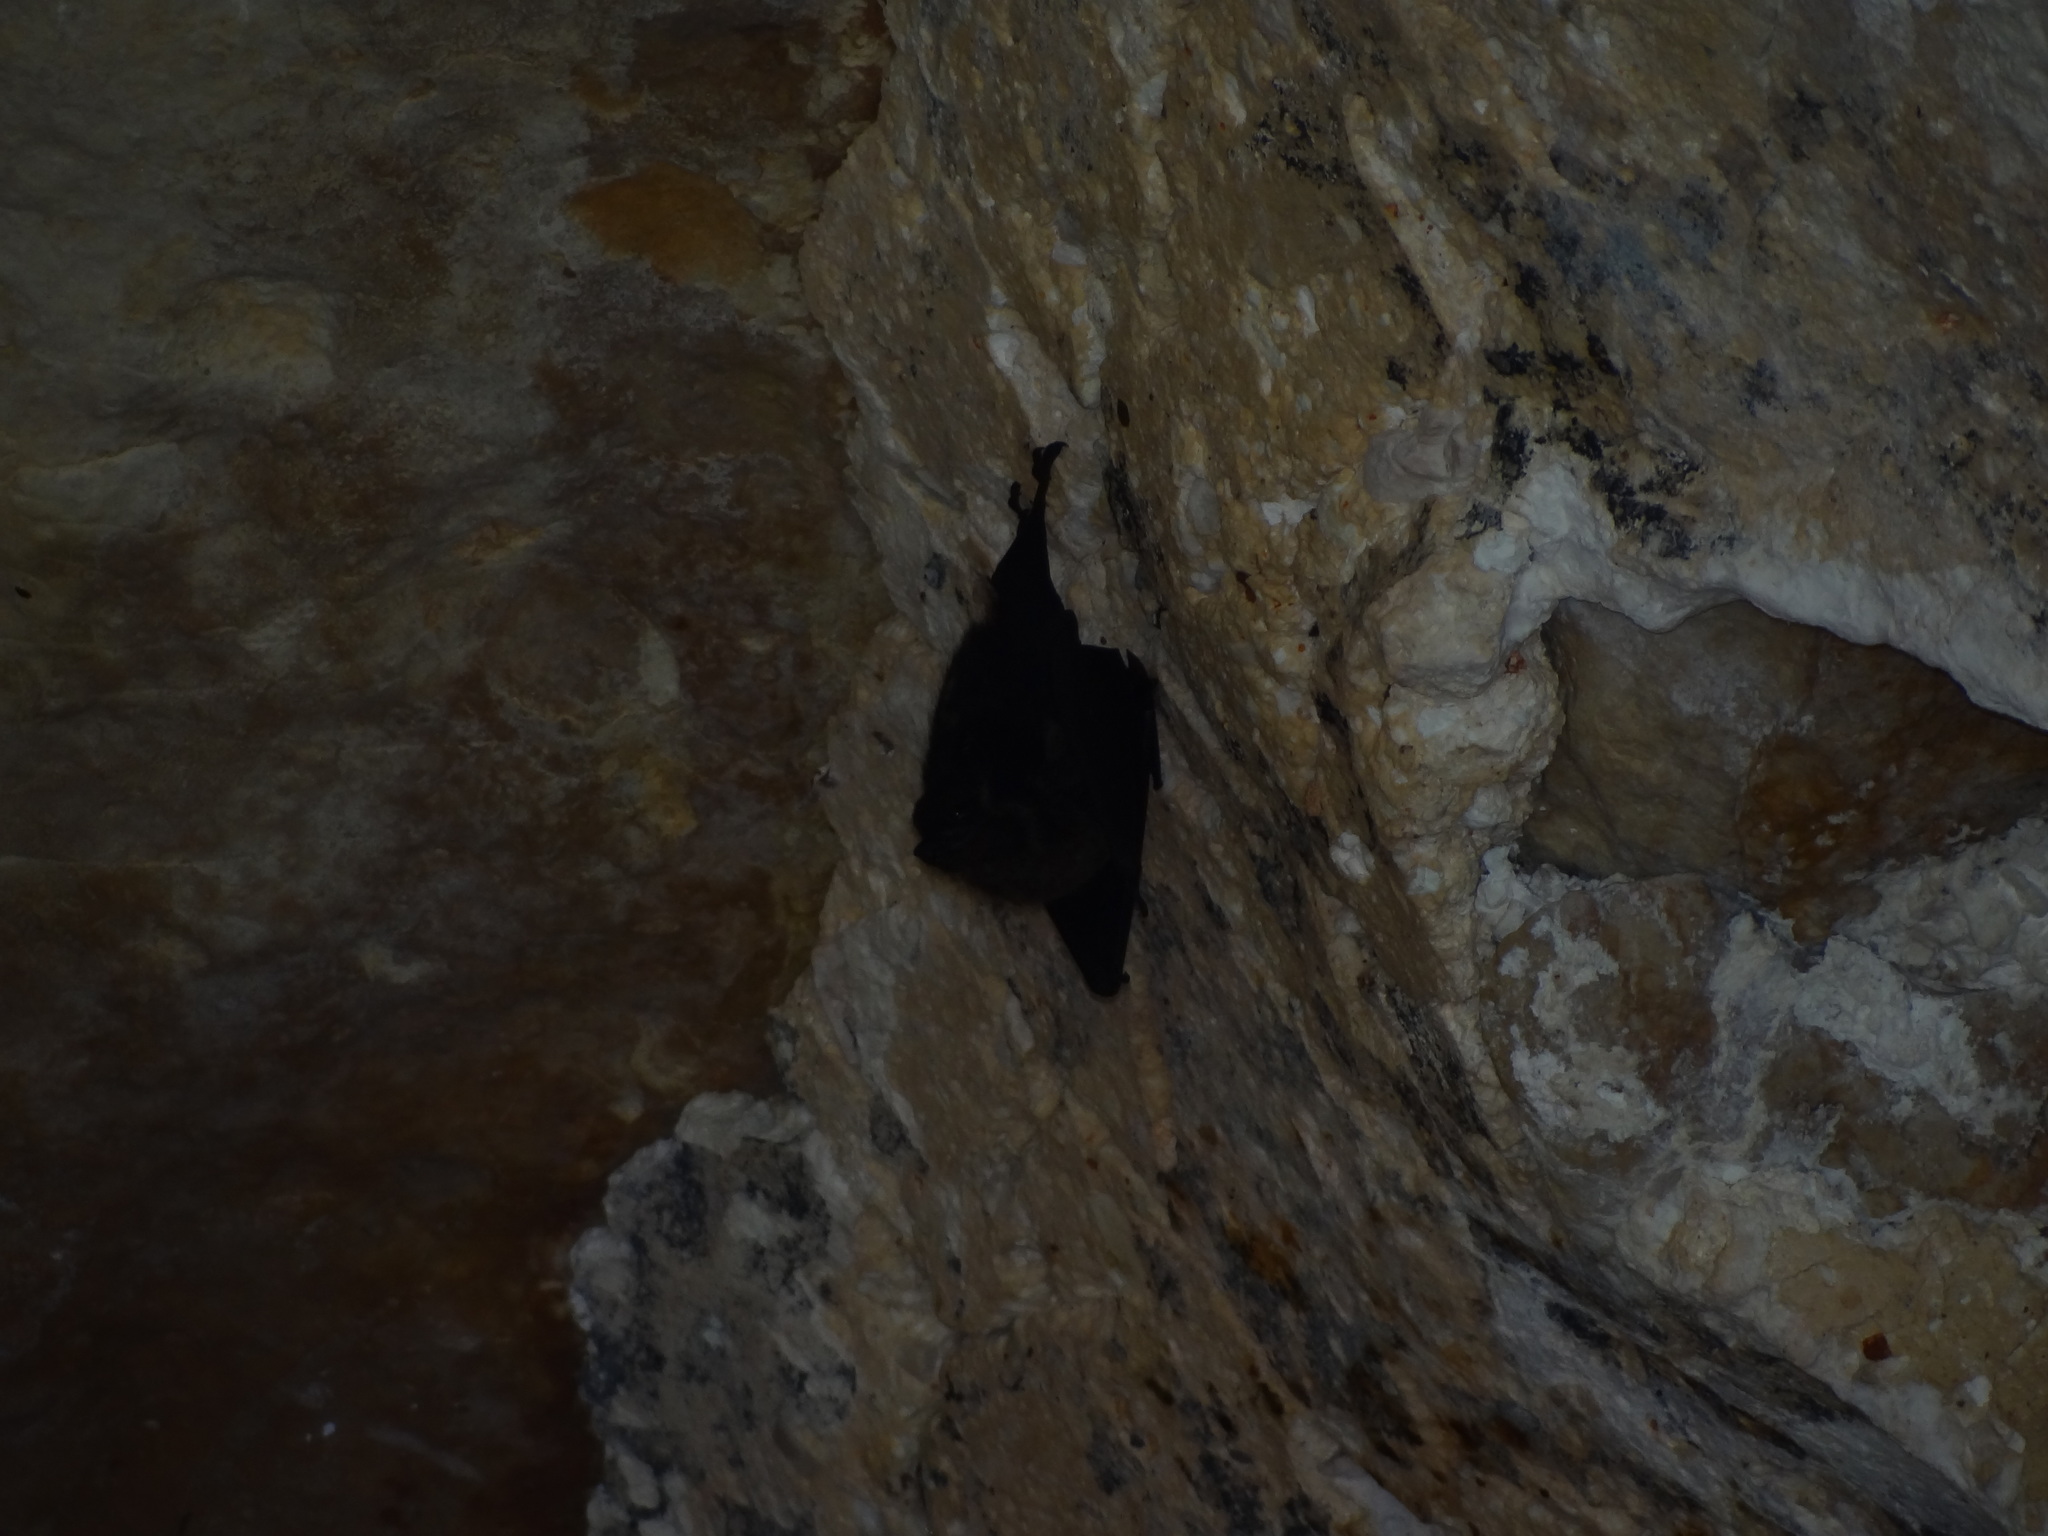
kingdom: Animalia
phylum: Chordata
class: Mammalia
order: Chiroptera
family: Emballonuridae
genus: Saccopteryx
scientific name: Saccopteryx bilineata
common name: Greater sac-winged bat
